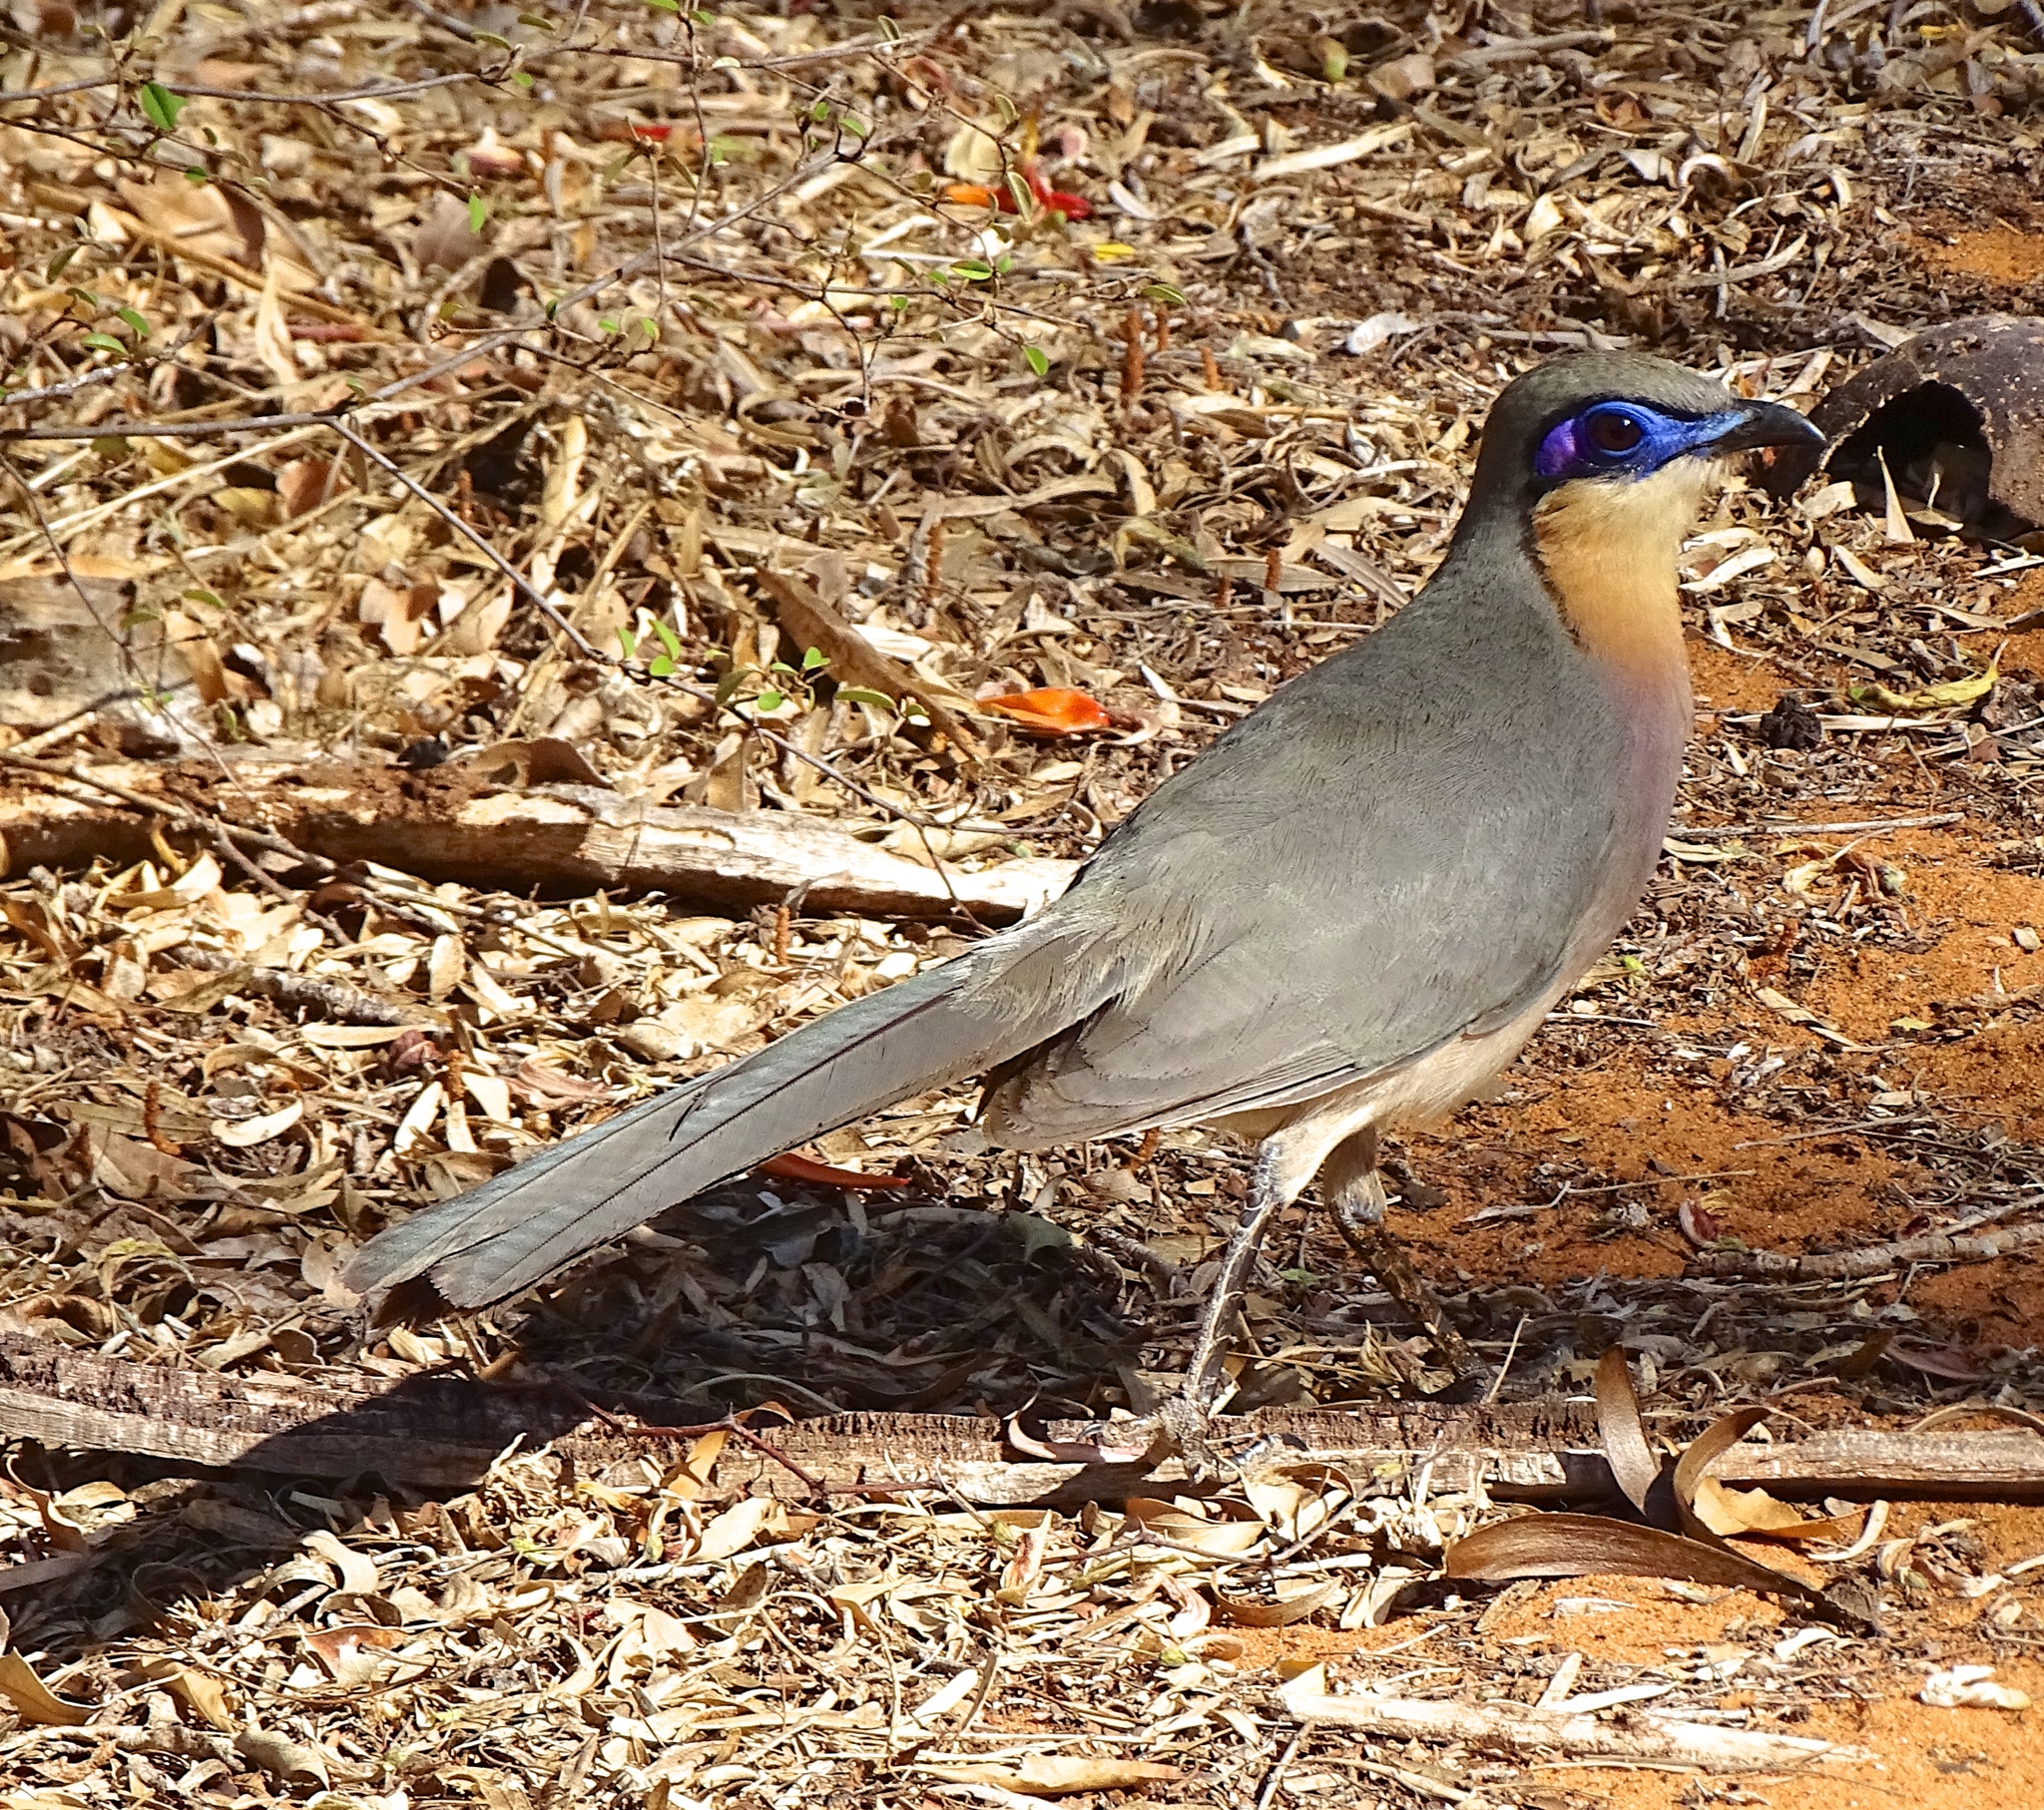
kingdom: Animalia
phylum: Chordata
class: Aves
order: Cuculiformes
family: Cuculidae
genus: Coua
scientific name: Coua cursor
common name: Running coua
